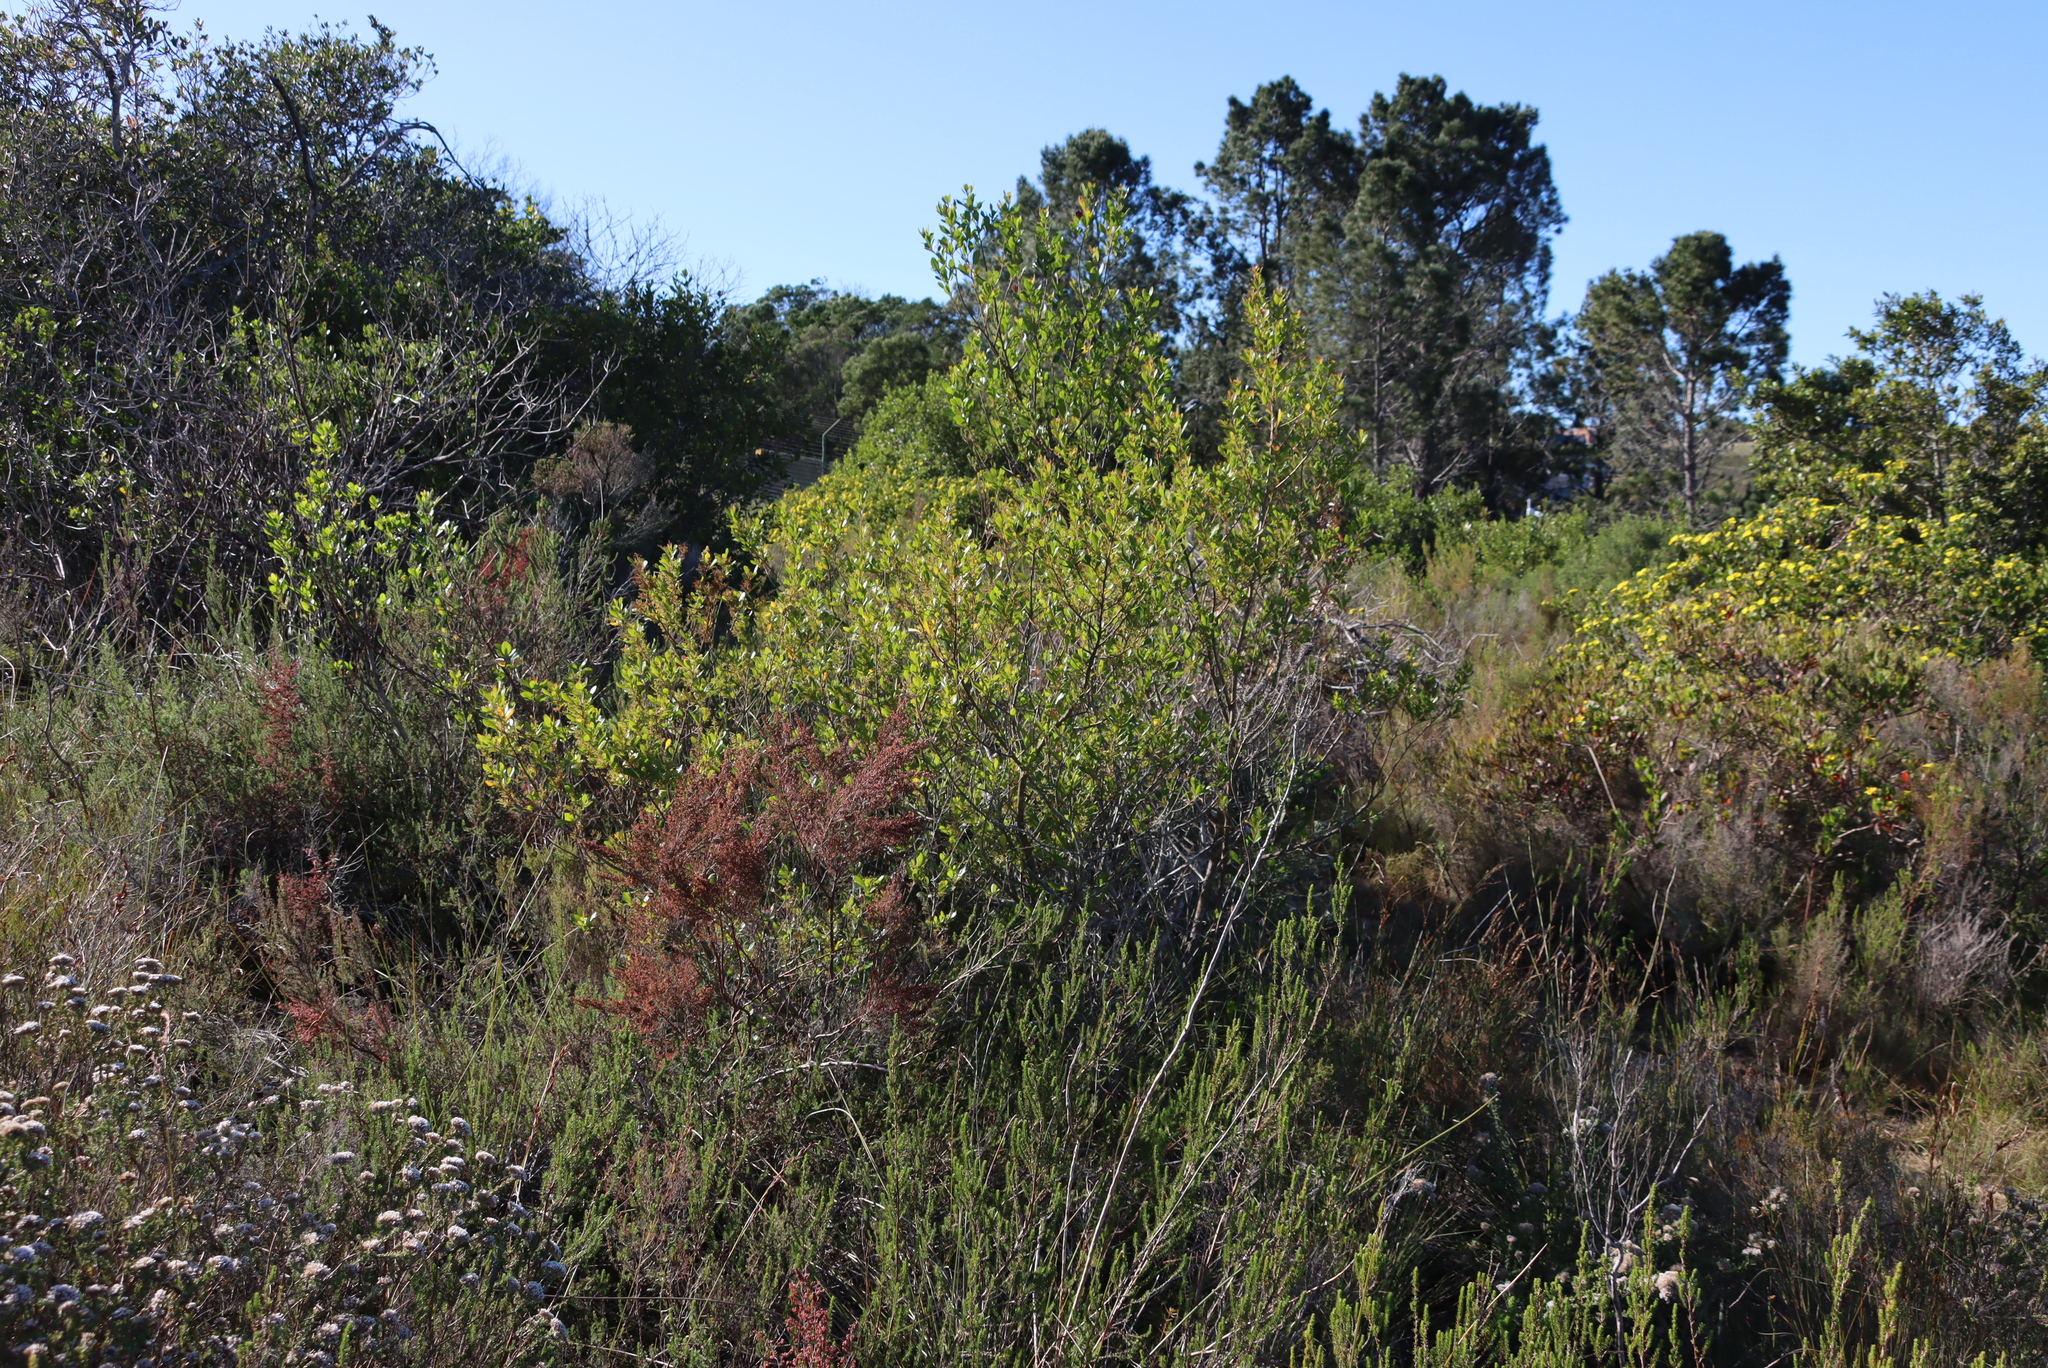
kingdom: Plantae
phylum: Tracheophyta
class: Magnoliopsida
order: Sapindales
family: Anacardiaceae
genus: Searsia
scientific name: Searsia lucida
